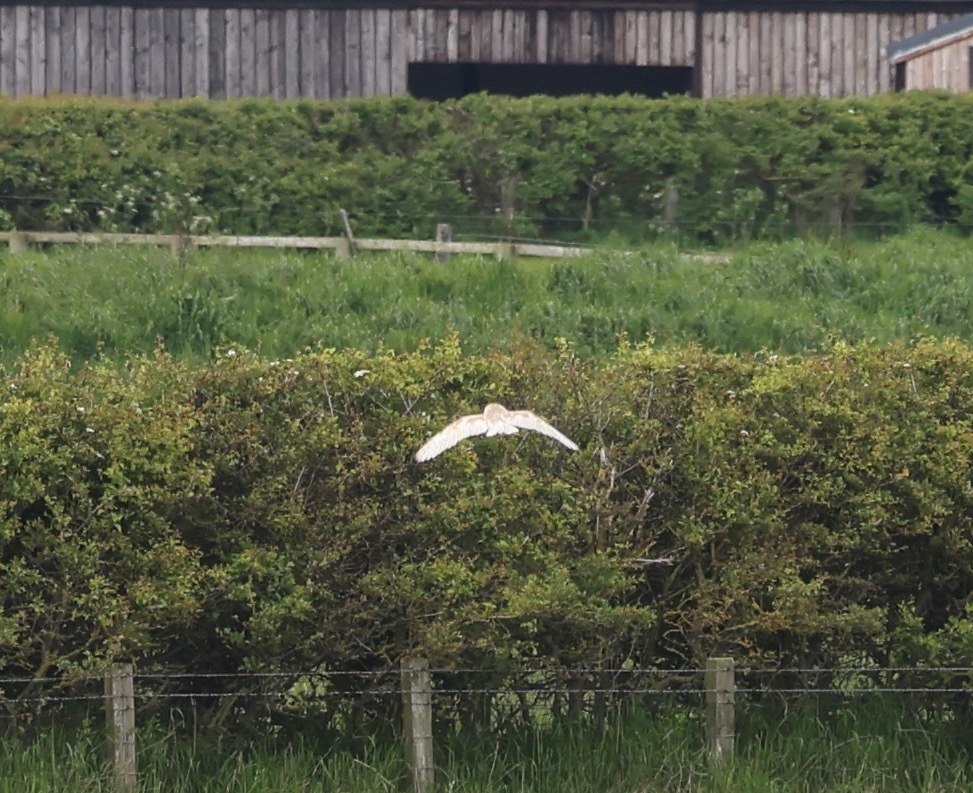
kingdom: Animalia
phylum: Chordata
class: Aves
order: Strigiformes
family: Tytonidae
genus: Tyto
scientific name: Tyto alba
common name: Barn owl
